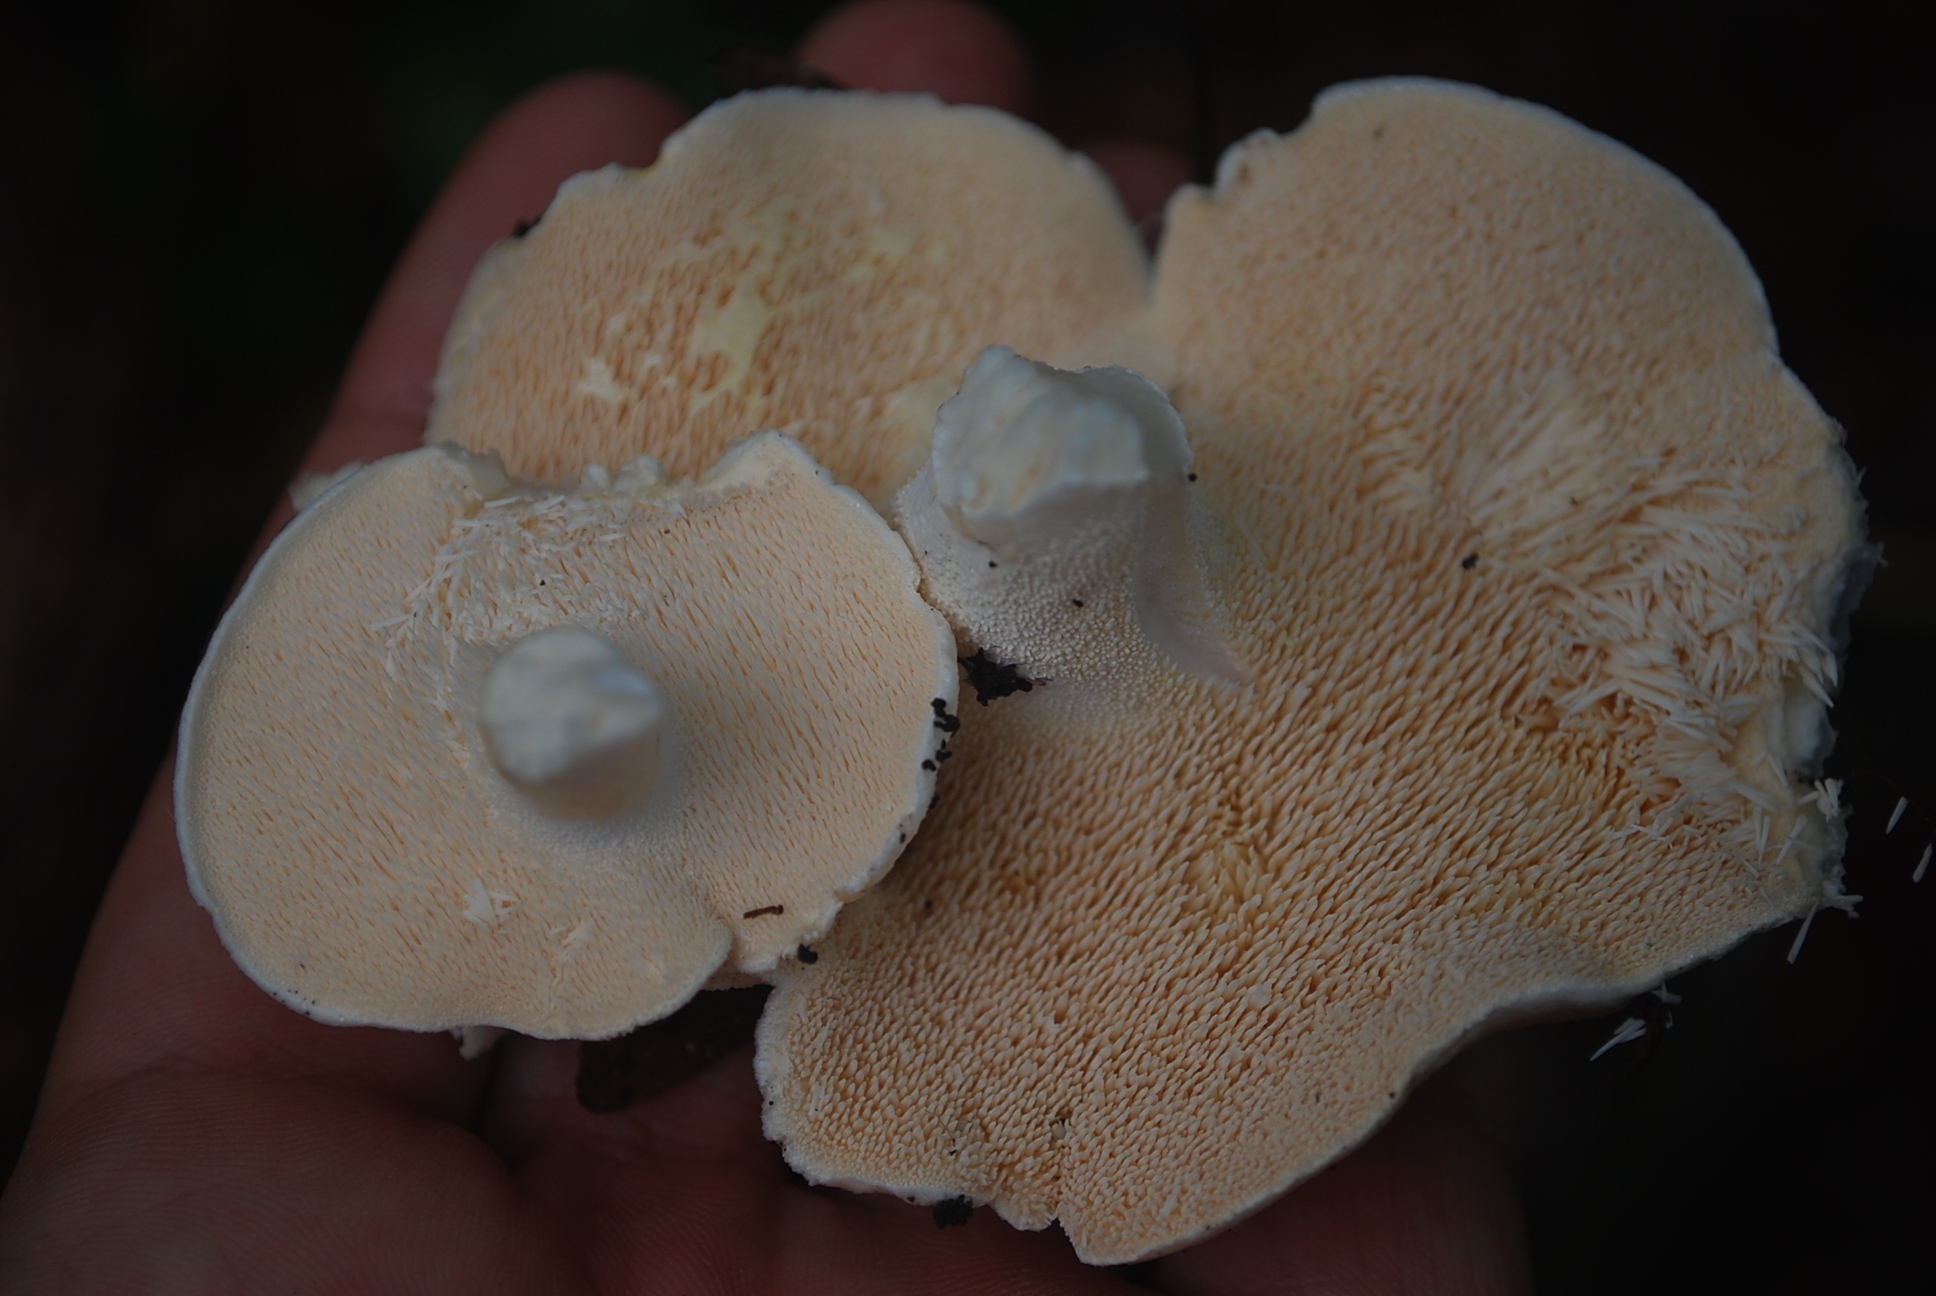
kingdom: Fungi
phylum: Basidiomycota
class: Agaricomycetes
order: Cantharellales
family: Hydnaceae
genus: Hydnum
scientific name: Hydnum repandum
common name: Wood hedgehog
